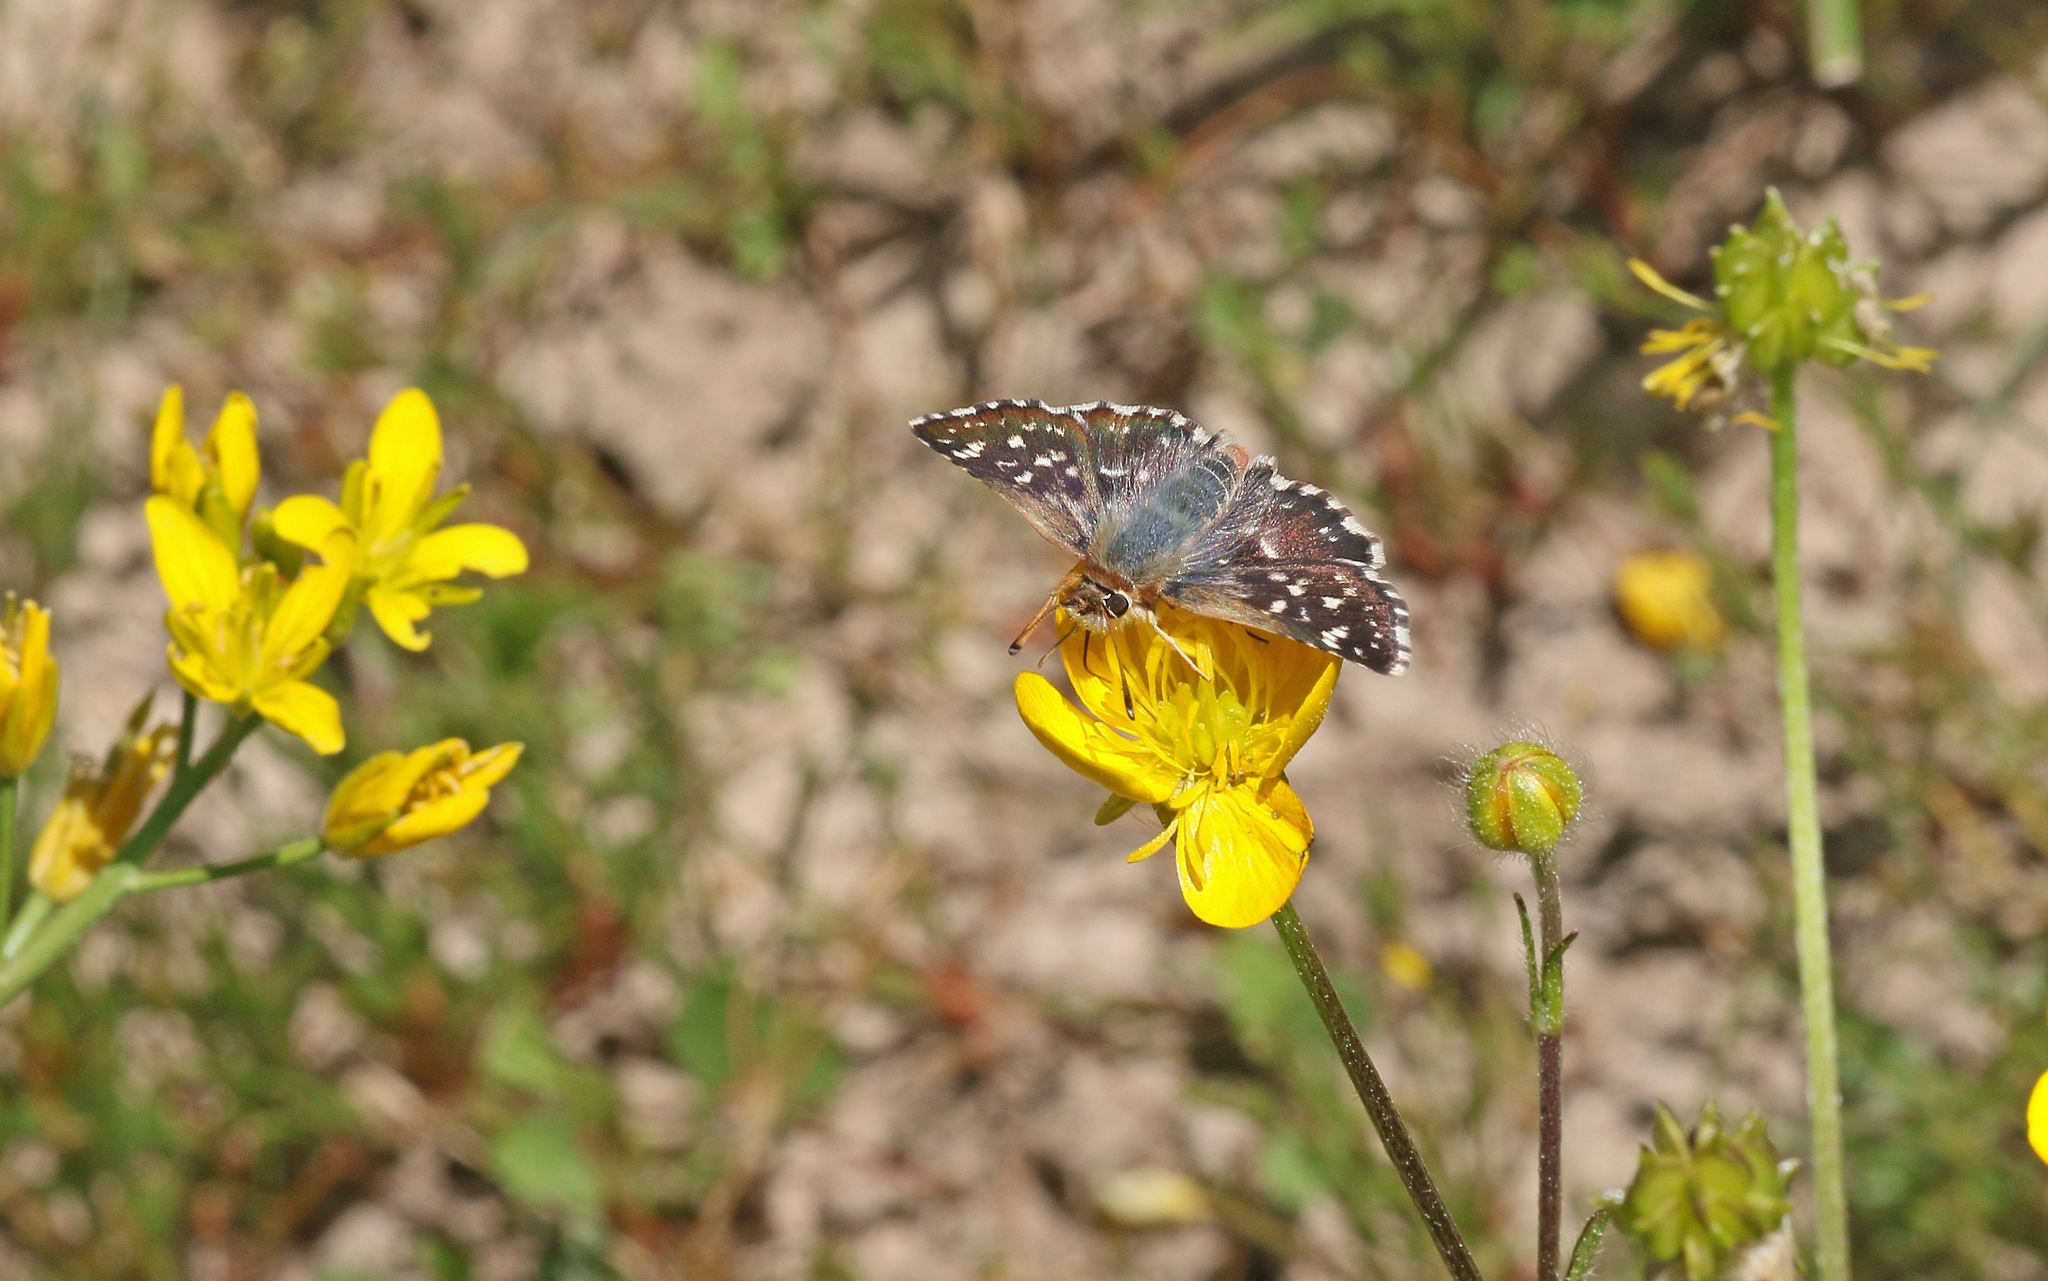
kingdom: Animalia
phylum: Arthropoda
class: Insecta
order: Lepidoptera
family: Hesperiidae
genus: Spialia
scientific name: Spialia sertorius
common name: Red underwing skipper
